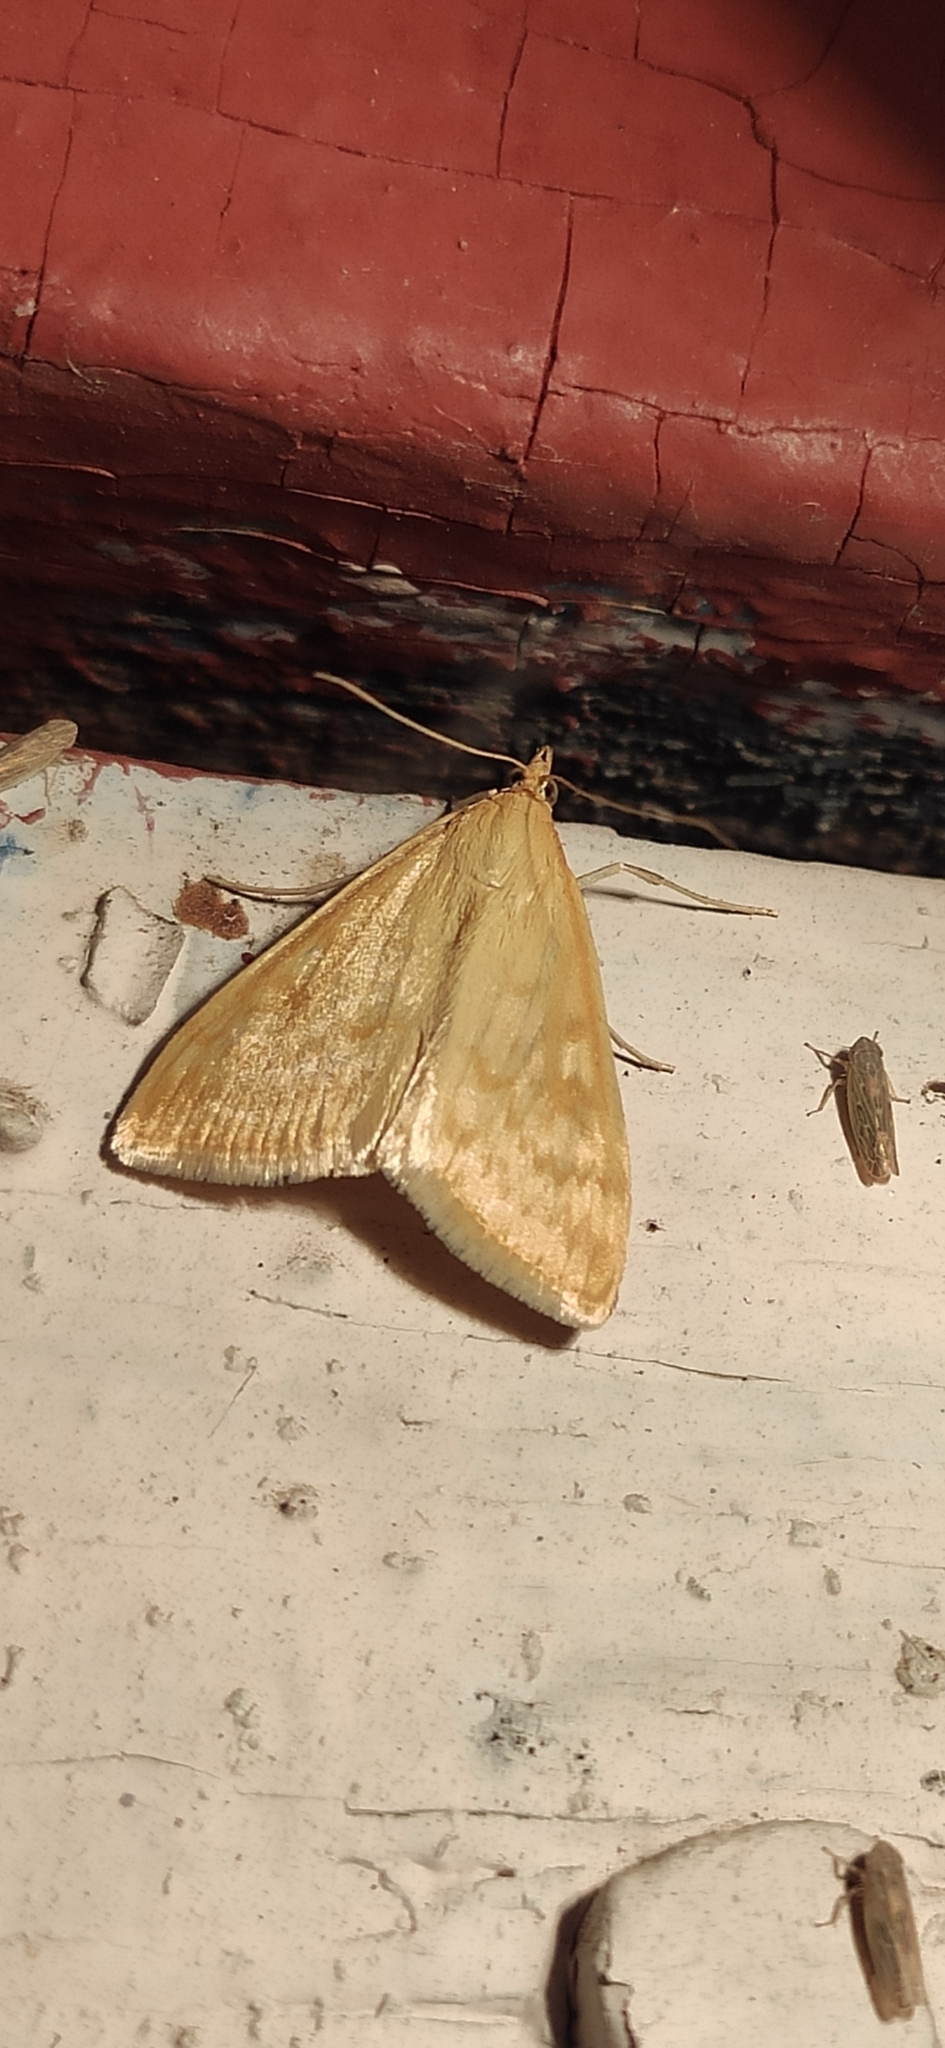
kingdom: Animalia
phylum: Arthropoda
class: Insecta
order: Lepidoptera
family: Crambidae
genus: Sitochroa
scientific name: Sitochroa verticalis
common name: Lesser pearl
